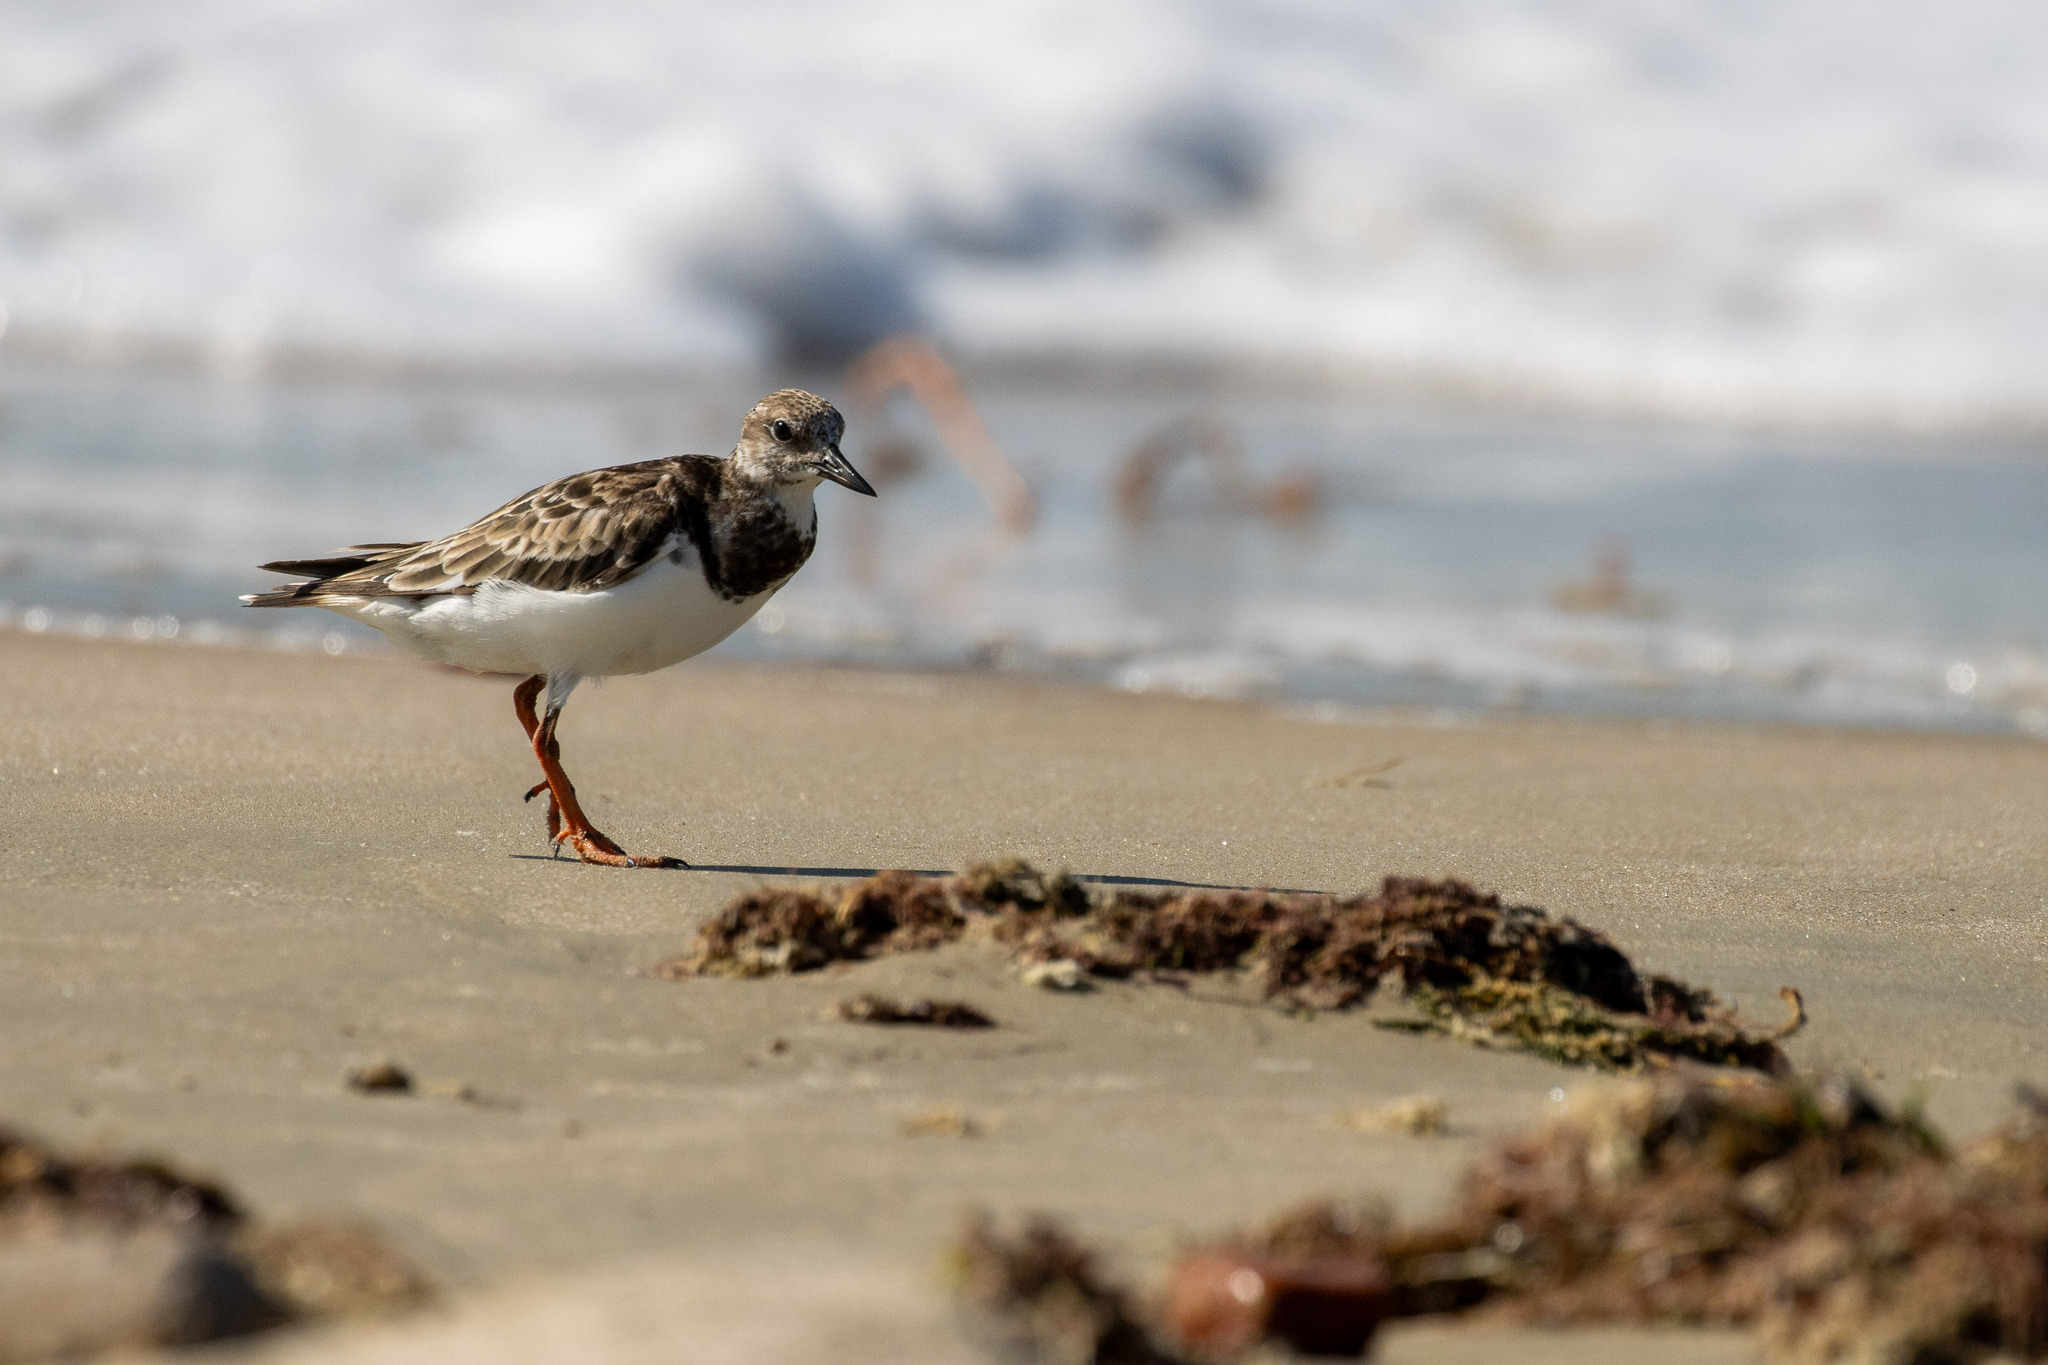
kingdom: Animalia
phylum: Chordata
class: Aves
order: Charadriiformes
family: Scolopacidae
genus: Arenaria
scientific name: Arenaria interpres
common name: Ruddy turnstone
